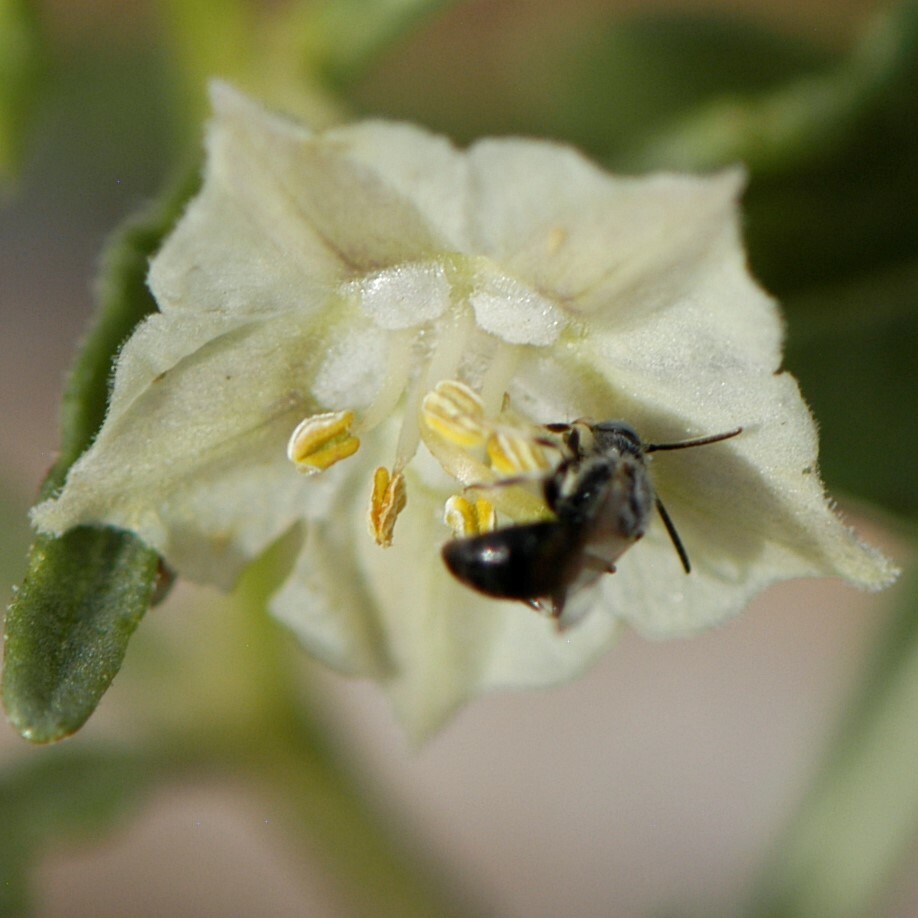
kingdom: Animalia
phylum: Arthropoda
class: Insecta
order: Hymenoptera
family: Andrenidae
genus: Calliopsis
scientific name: Calliopsis callops
